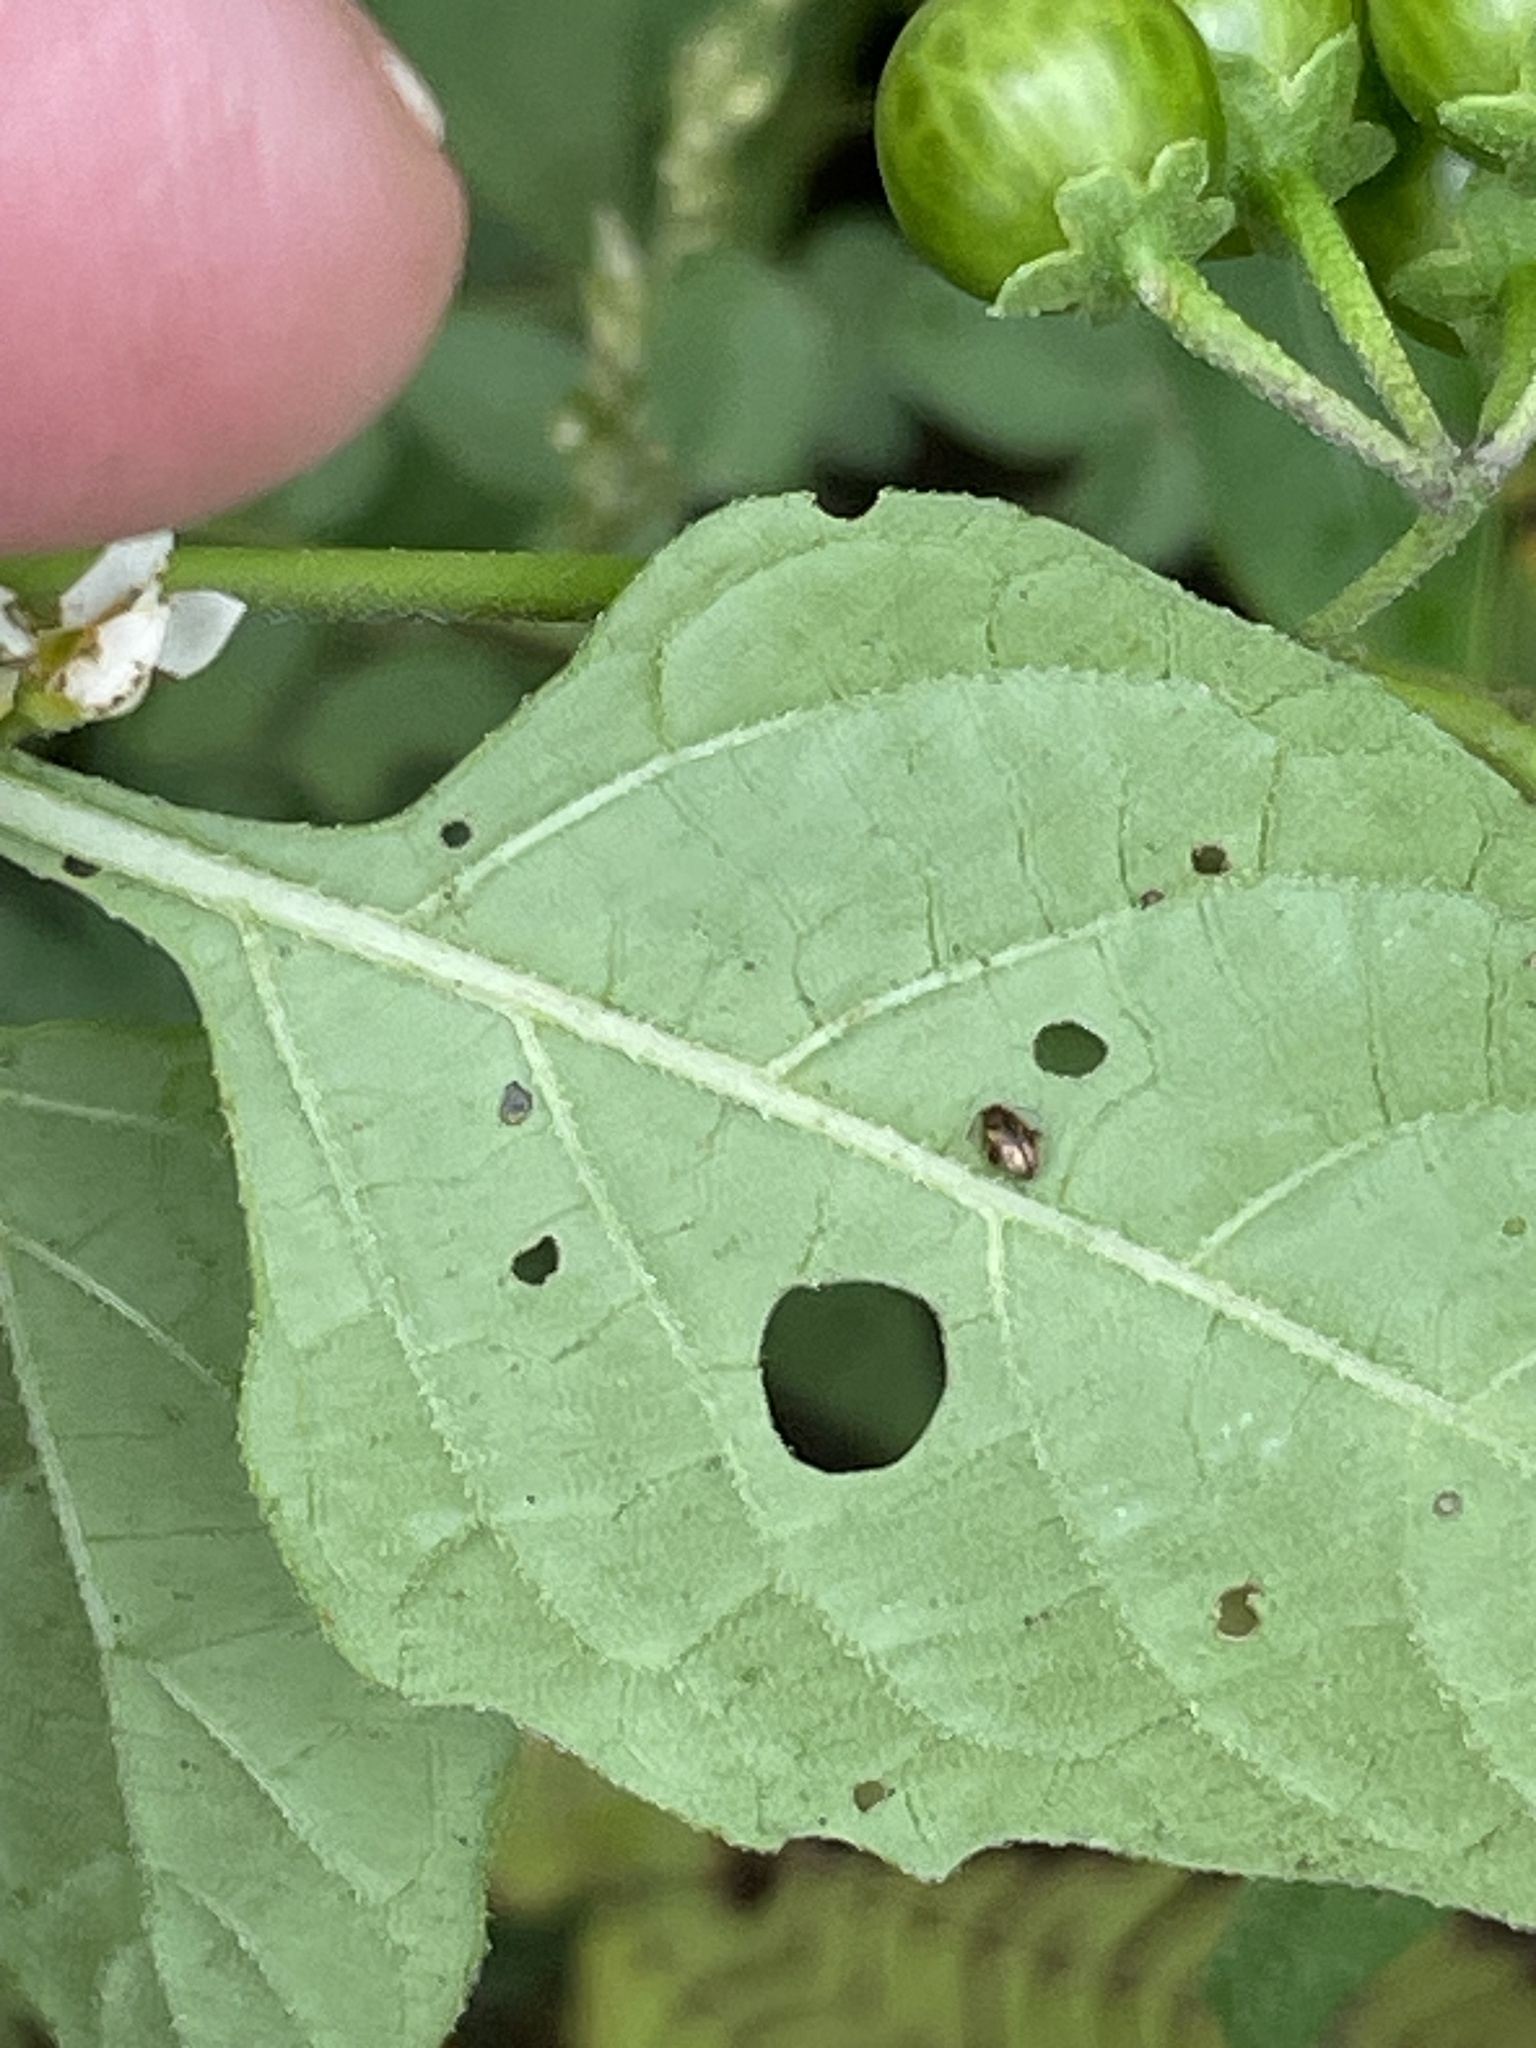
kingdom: Plantae
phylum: Tracheophyta
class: Magnoliopsida
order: Solanales
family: Solanaceae
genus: Solanum
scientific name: Solanum emulans
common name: Eastern black nightshade
